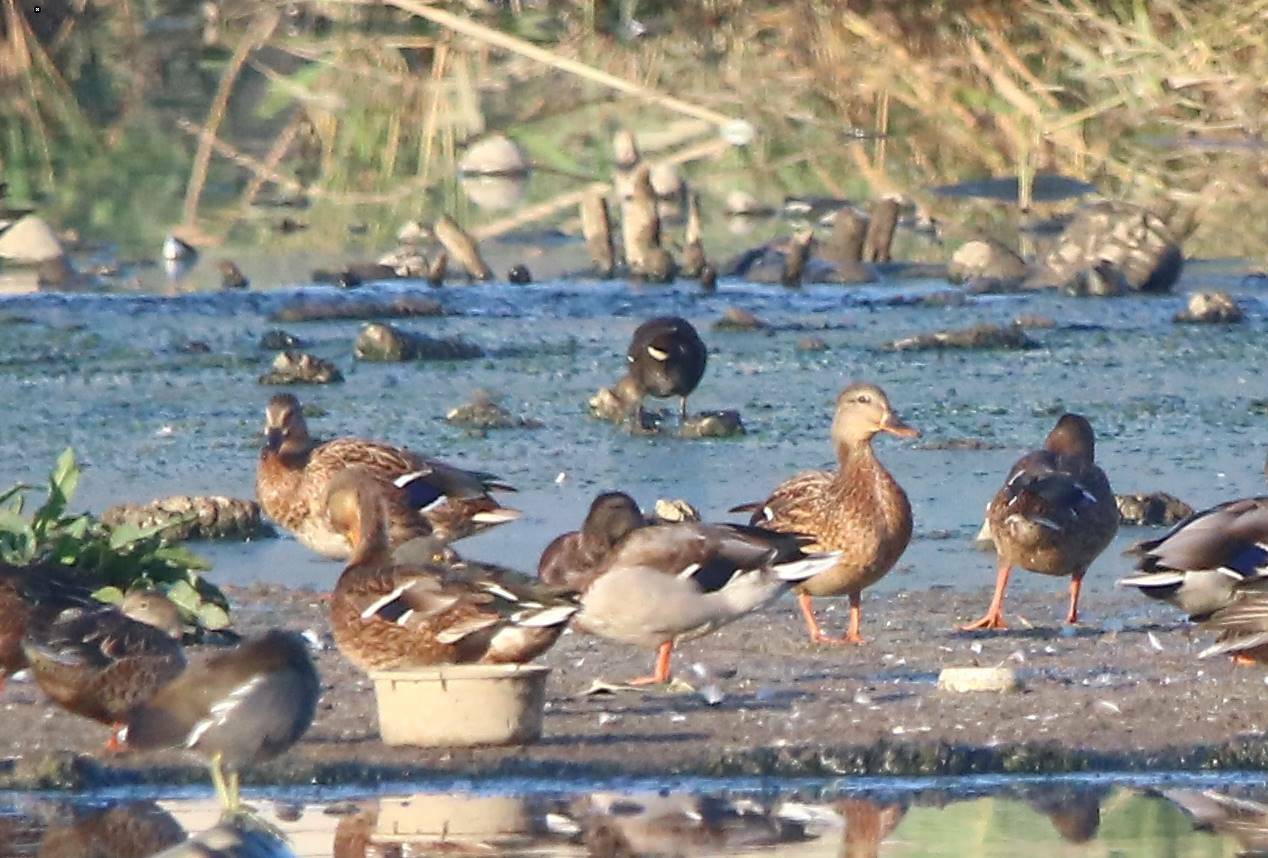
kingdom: Animalia
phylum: Chordata
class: Aves
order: Anseriformes
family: Anatidae
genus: Anas
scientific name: Anas platyrhynchos
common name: Mallard
